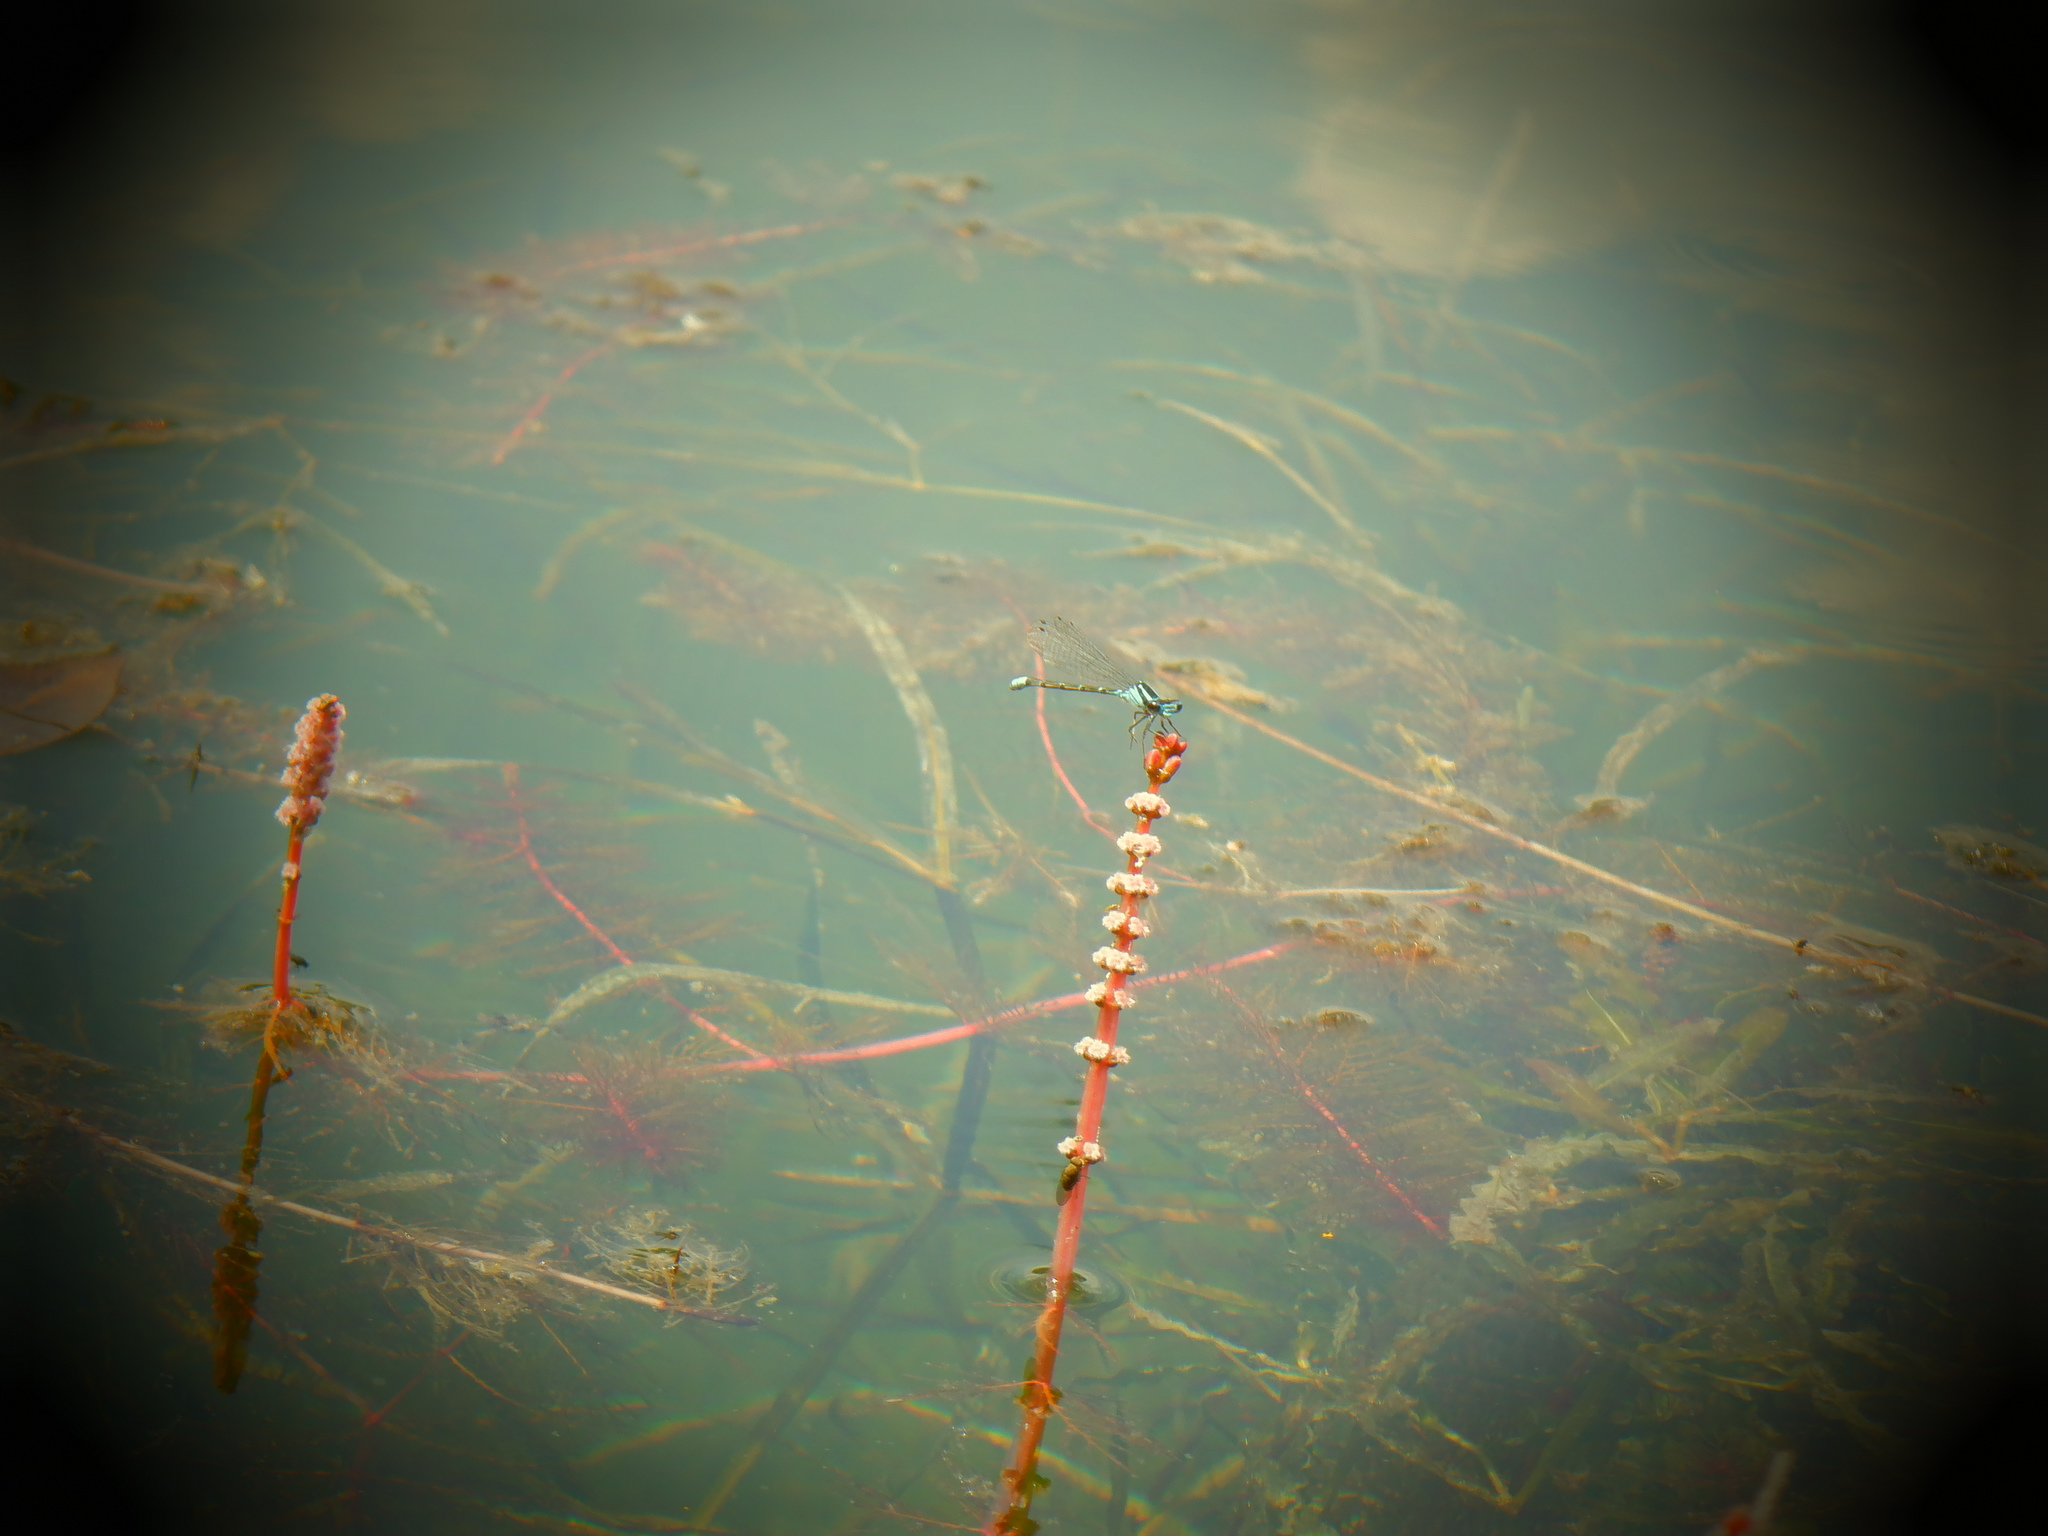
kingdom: Animalia
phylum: Arthropoda
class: Insecta
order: Odonata
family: Coenagrionidae
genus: Enallagma
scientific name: Enallagma geminatum
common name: Skimming bluet
